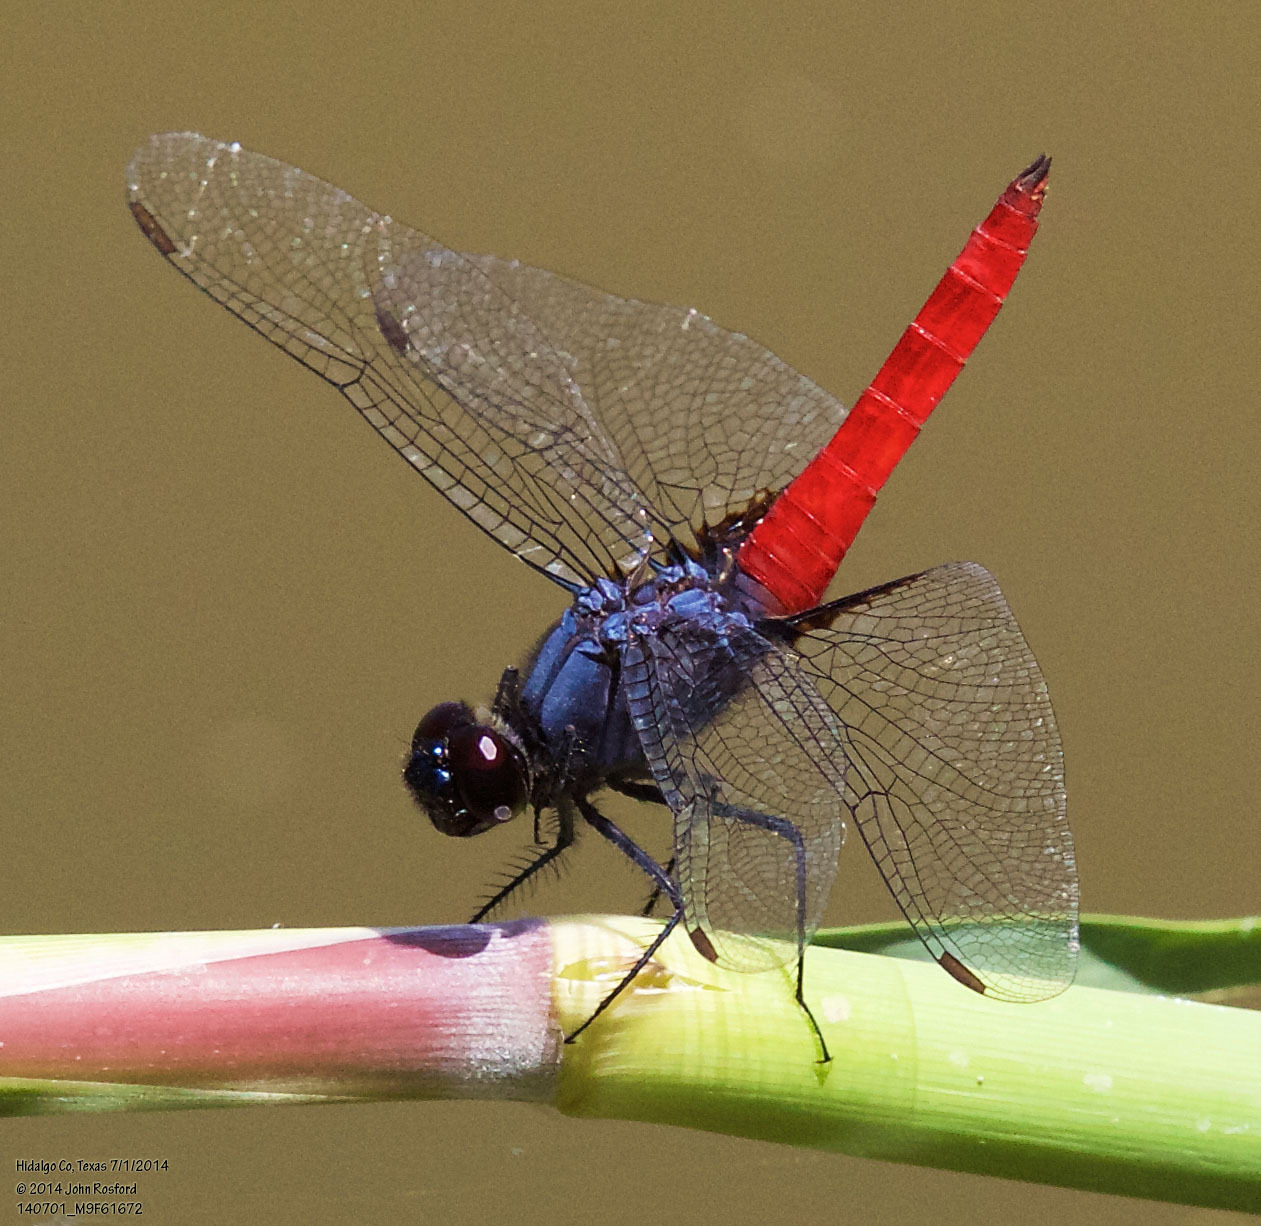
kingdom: Animalia
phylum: Arthropoda
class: Insecta
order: Odonata
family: Libellulidae
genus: Planiplax
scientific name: Planiplax sanguiniventris
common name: Mexican scarlet-tail
